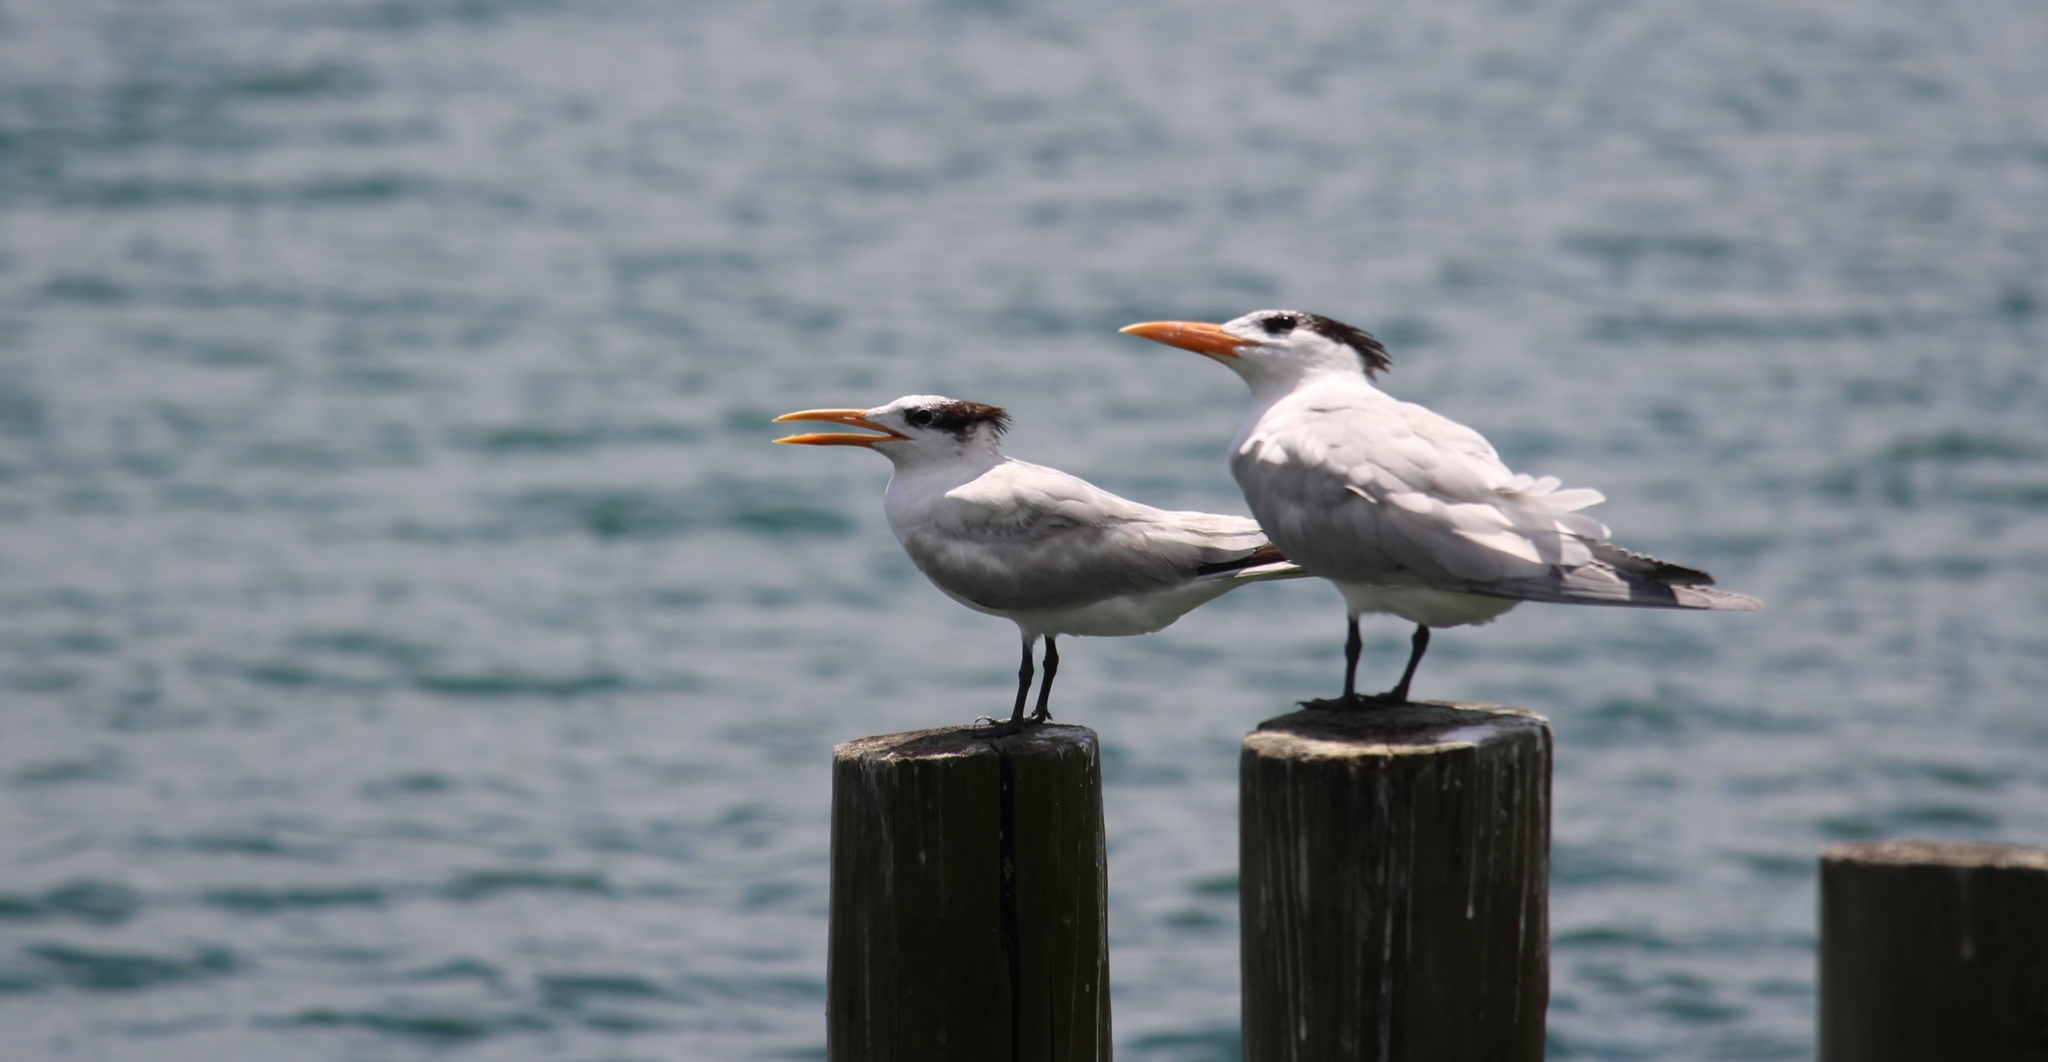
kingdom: Animalia
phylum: Chordata
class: Aves
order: Charadriiformes
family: Laridae
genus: Thalasseus
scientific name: Thalasseus maximus
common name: Royal tern
